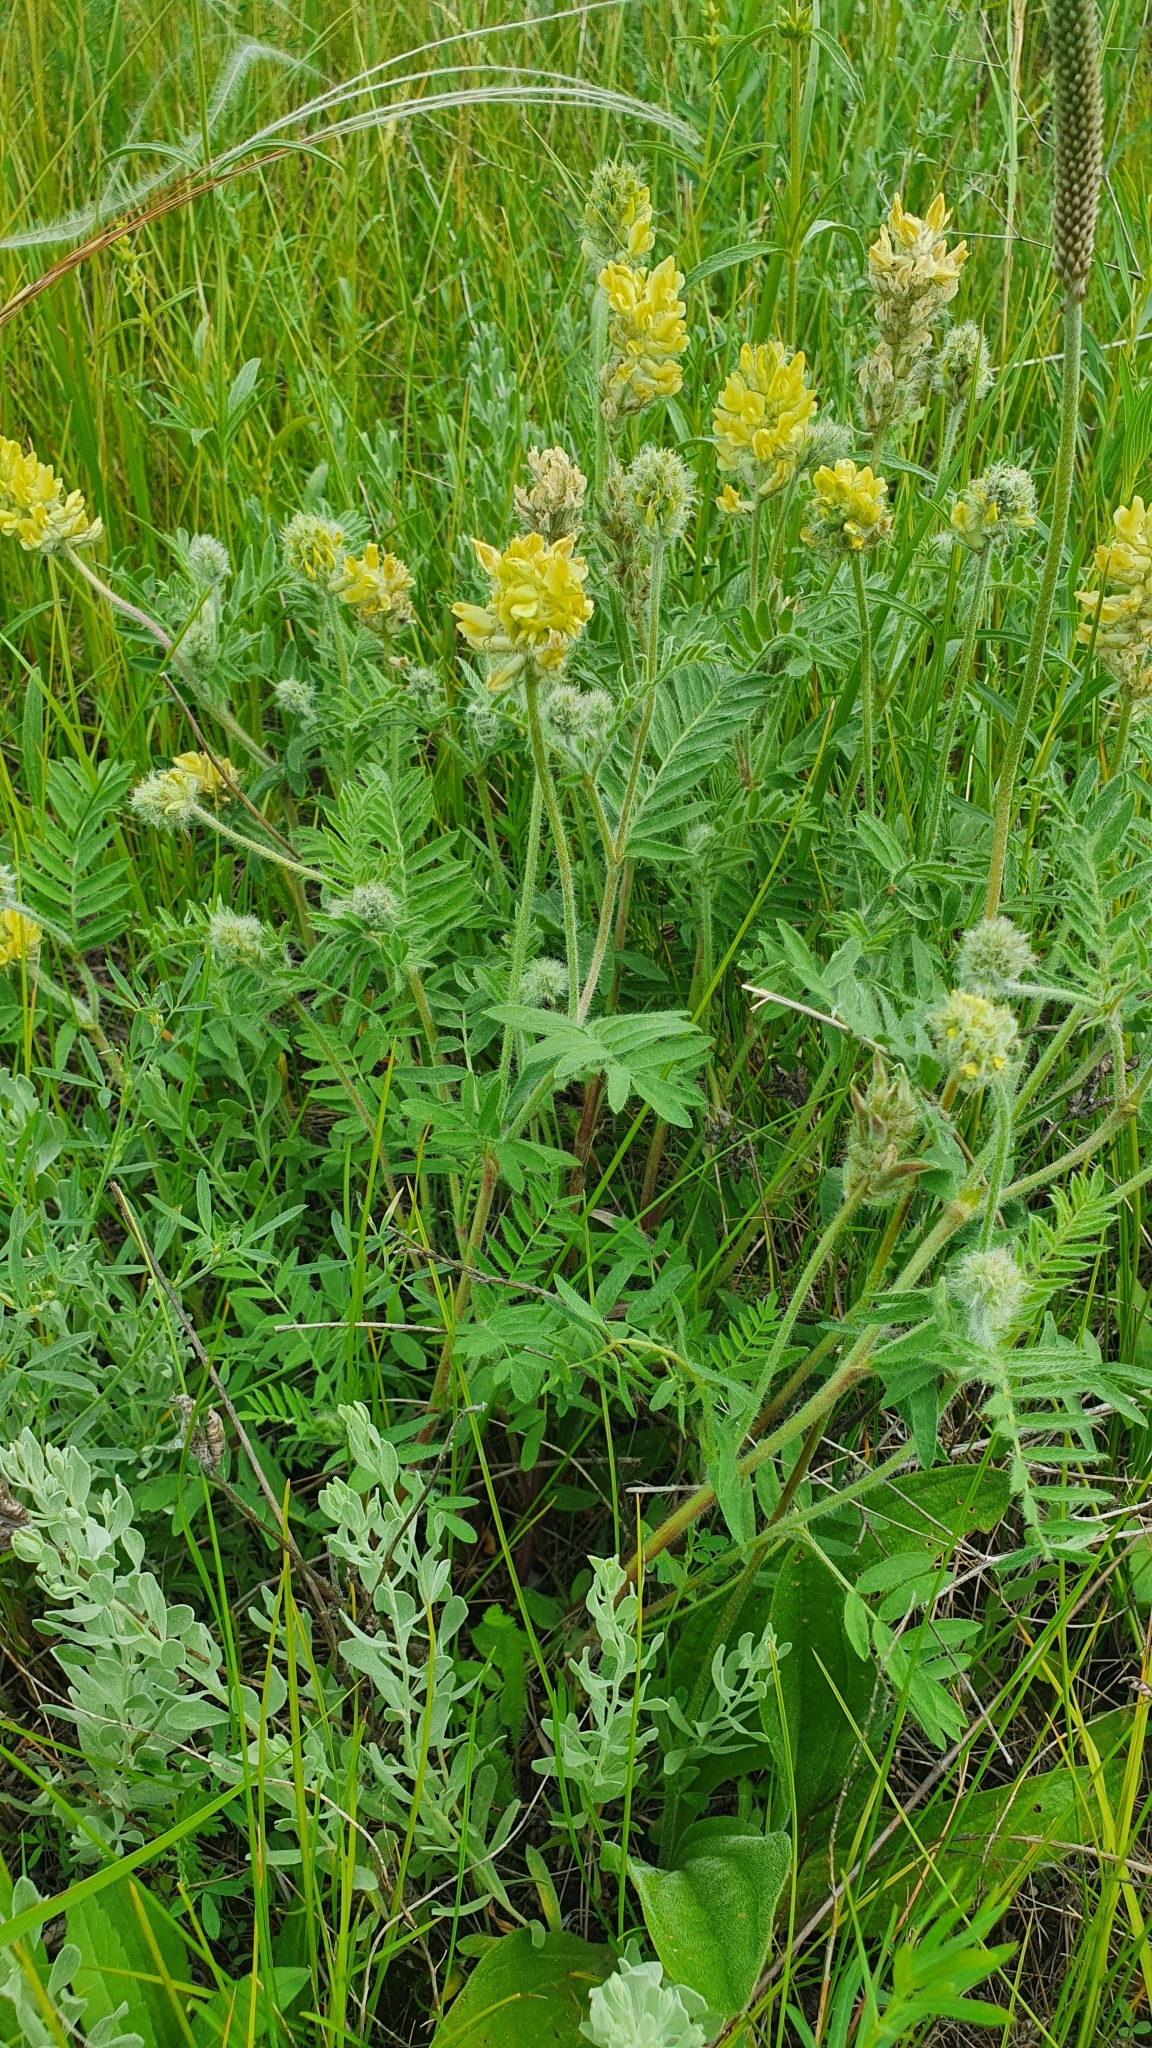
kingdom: Plantae
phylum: Tracheophyta
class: Magnoliopsida
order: Fabales
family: Fabaceae
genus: Oxytropis
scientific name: Oxytropis pilosa
